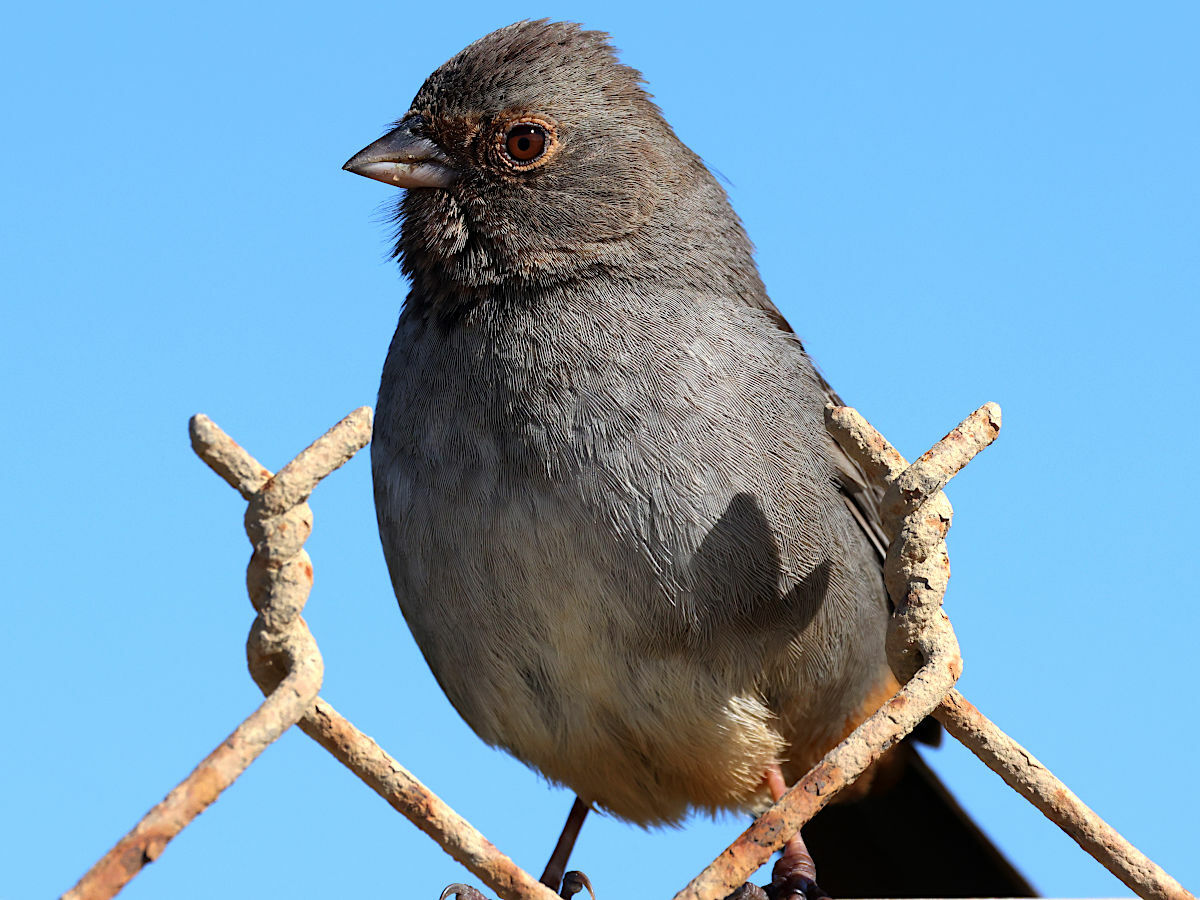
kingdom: Animalia
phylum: Chordata
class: Aves
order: Passeriformes
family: Passerellidae
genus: Melozone
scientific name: Melozone crissalis
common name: California towhee
